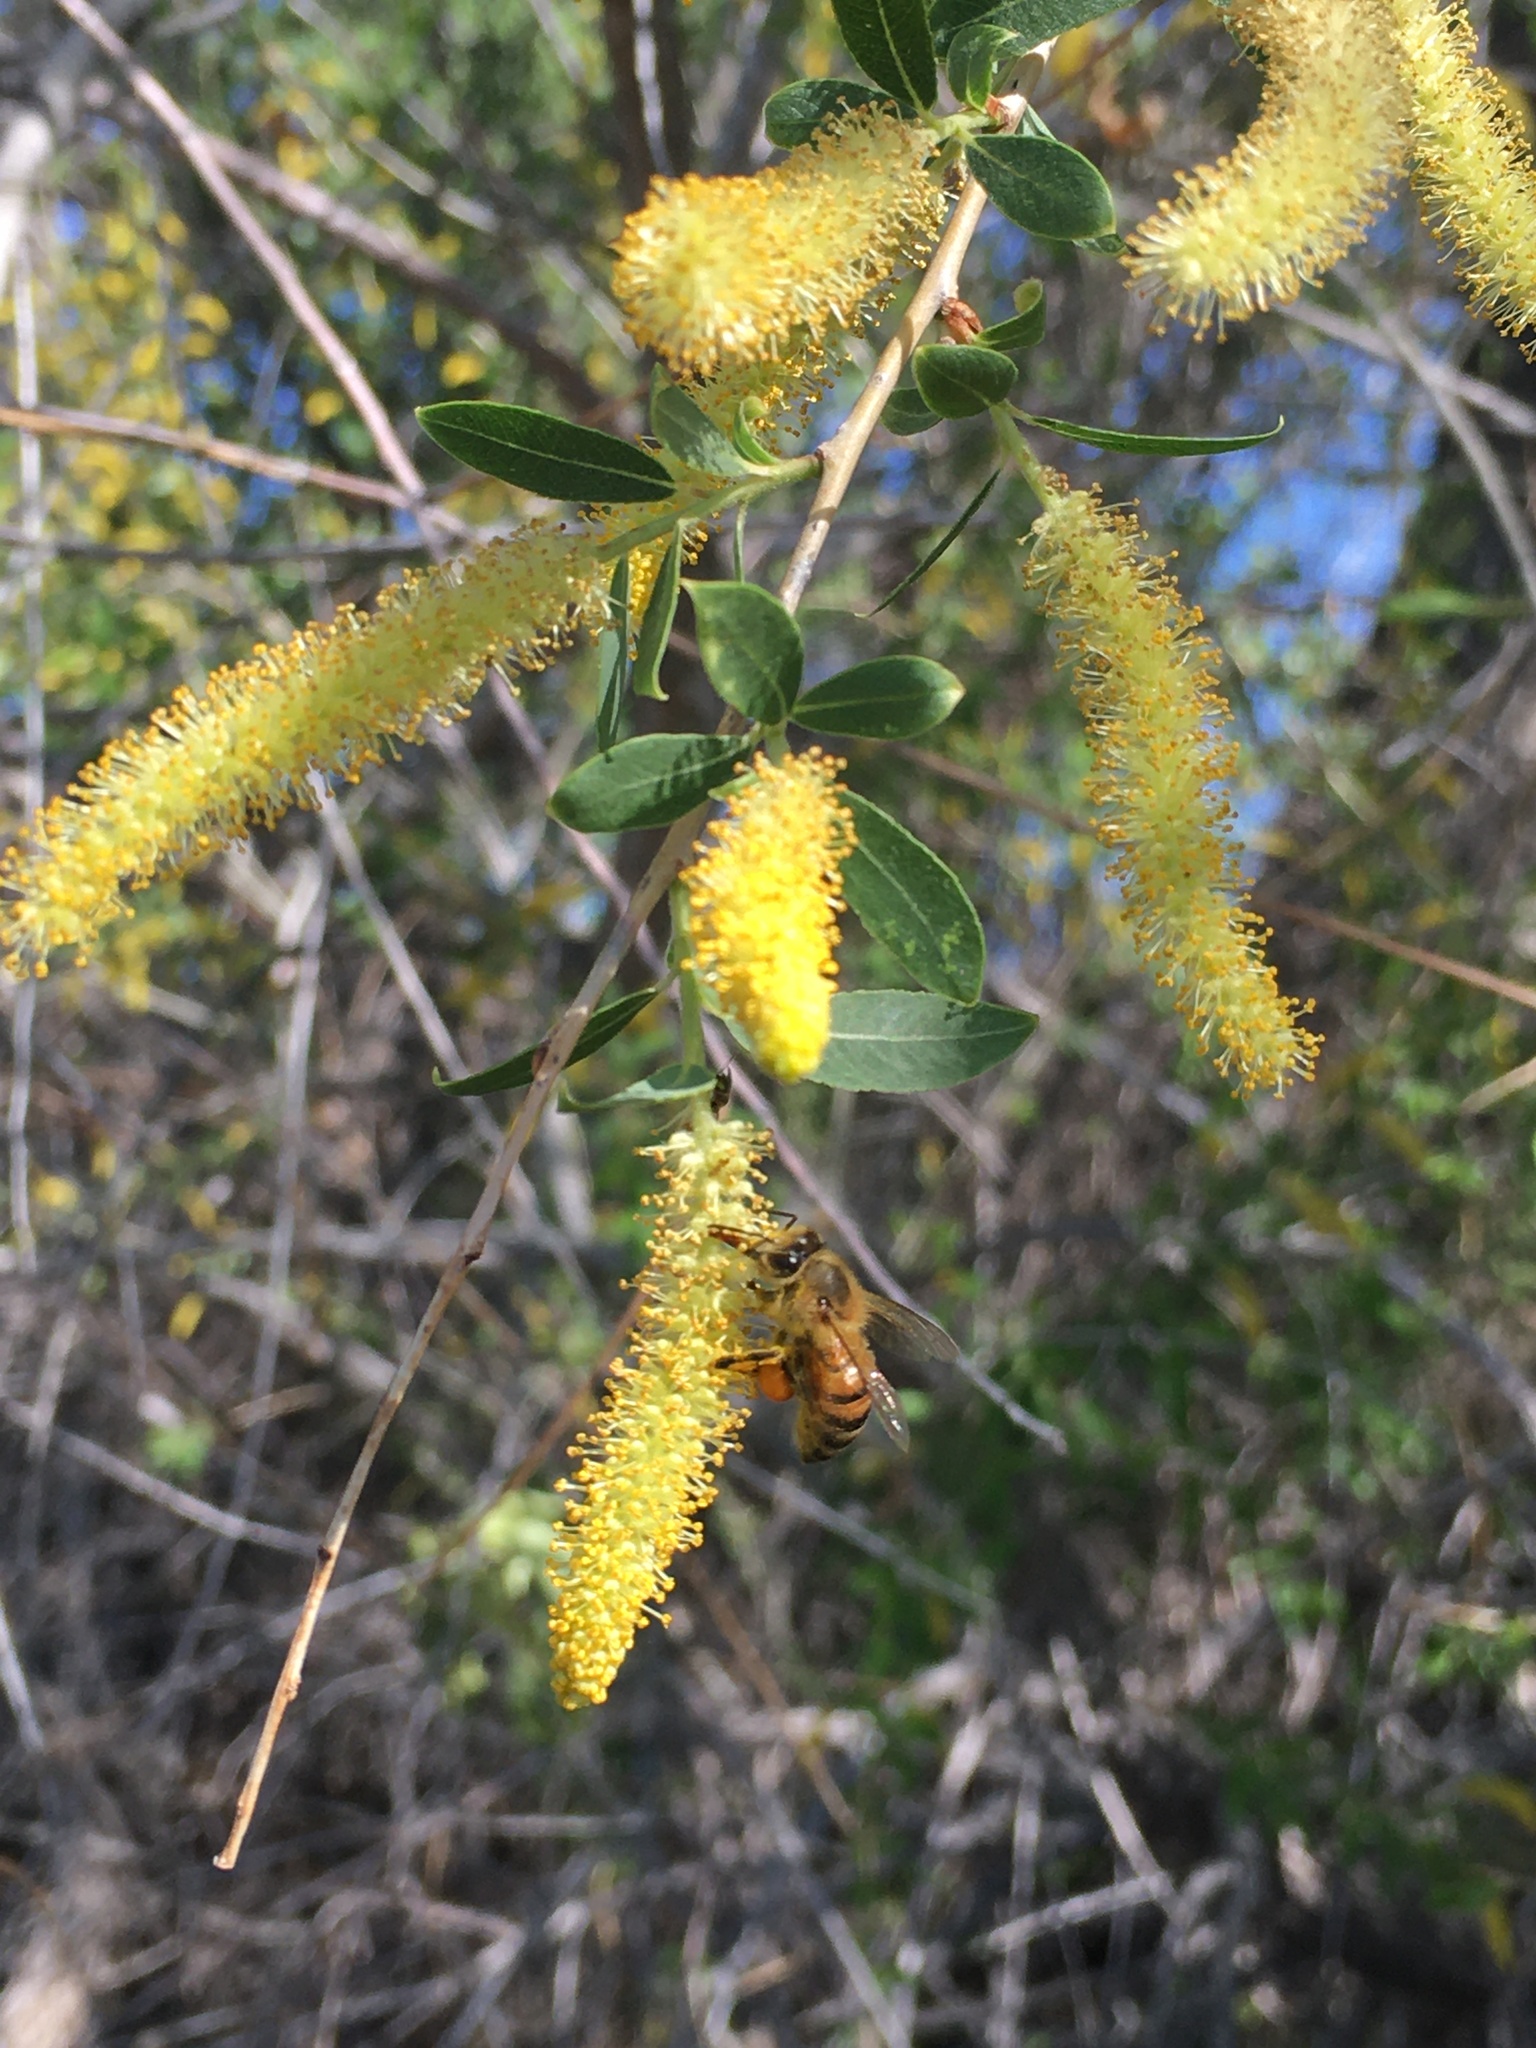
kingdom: Animalia
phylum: Arthropoda
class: Insecta
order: Hymenoptera
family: Apidae
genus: Apis
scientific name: Apis mellifera
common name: Honey bee
